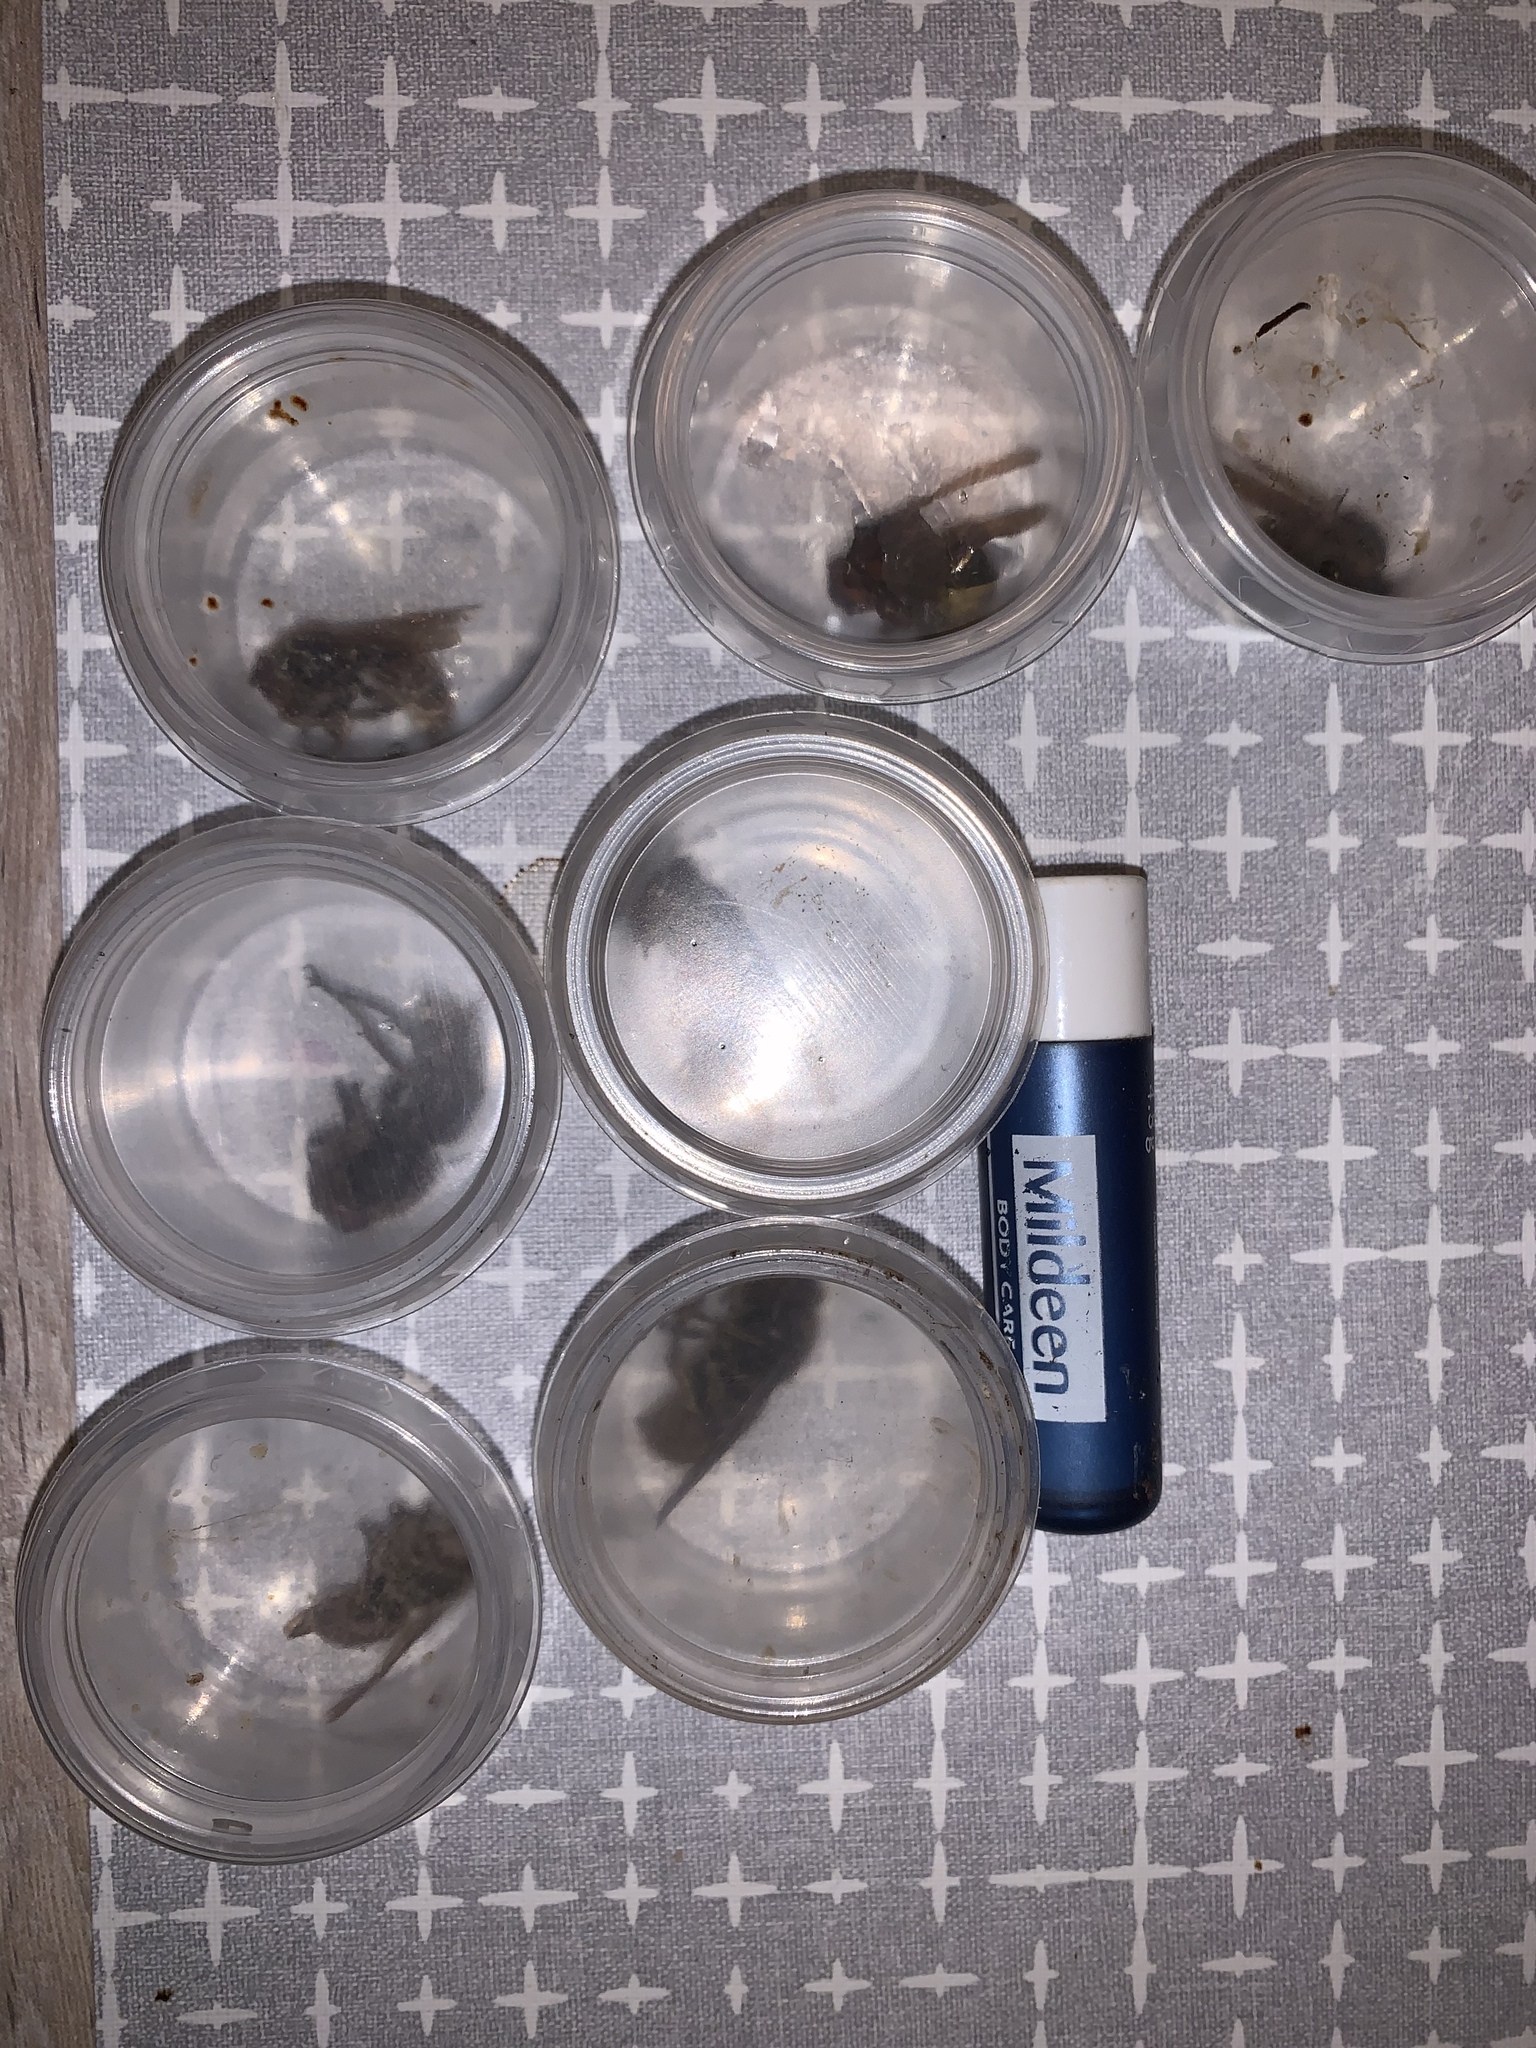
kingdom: Animalia
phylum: Arthropoda
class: Insecta
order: Hymenoptera
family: Vespidae
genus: Vespa
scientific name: Vespa crabro
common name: Hornet
